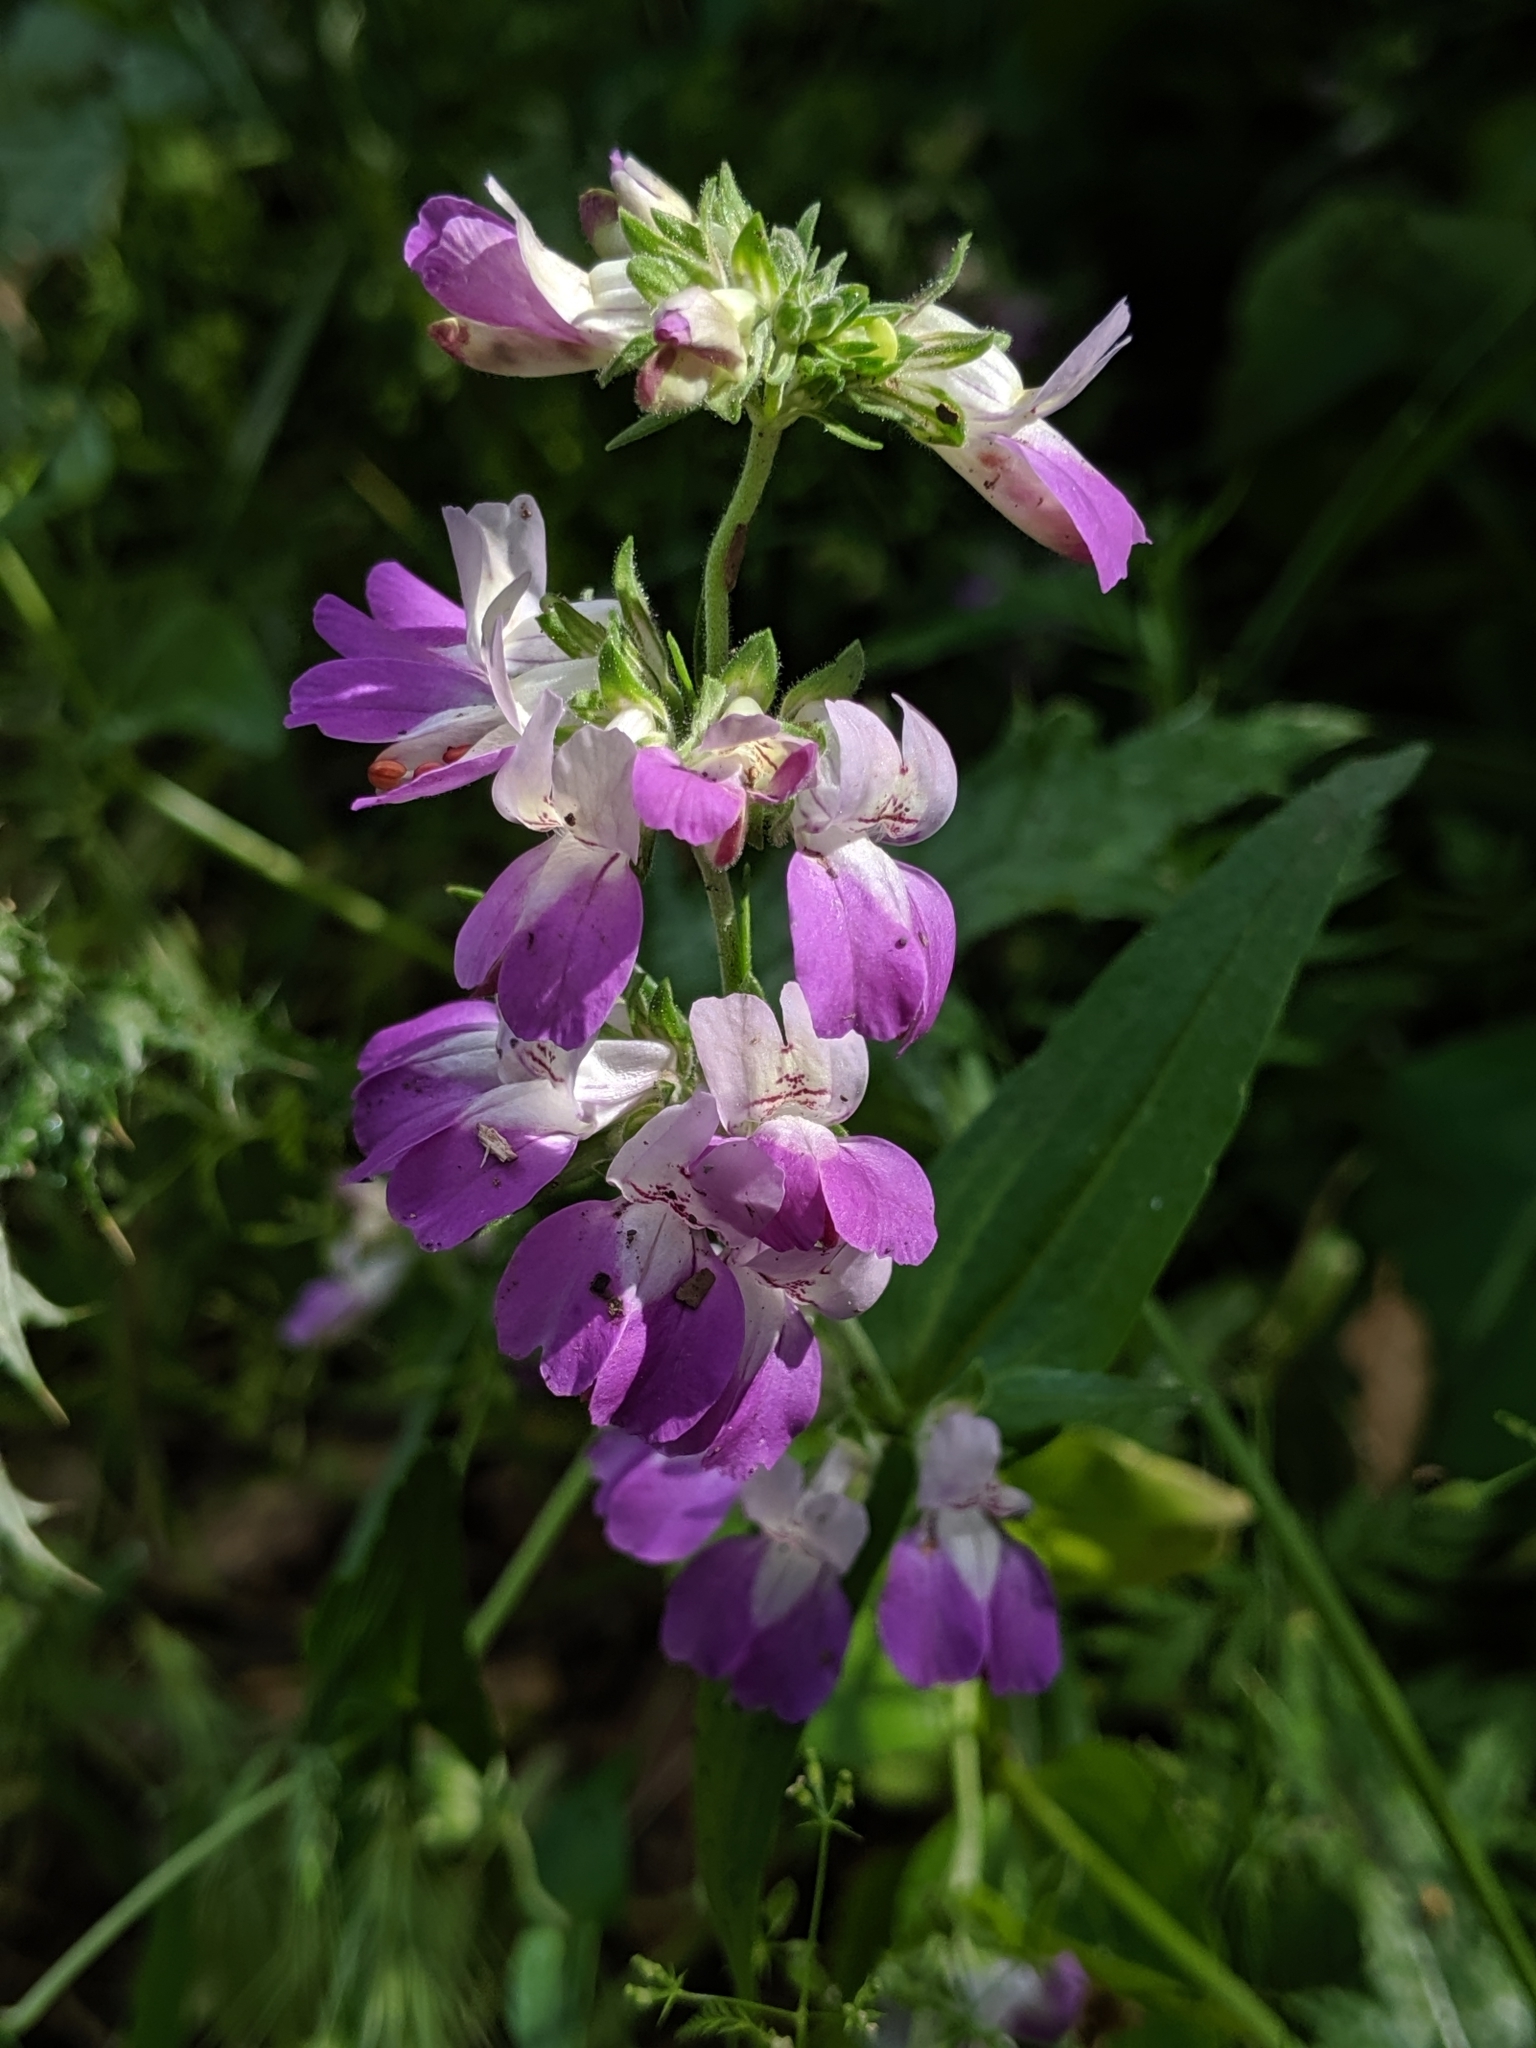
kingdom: Plantae
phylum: Tracheophyta
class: Magnoliopsida
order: Lamiales
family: Plantaginaceae
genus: Collinsia
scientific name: Collinsia heterophylla
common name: Chinese-houses
